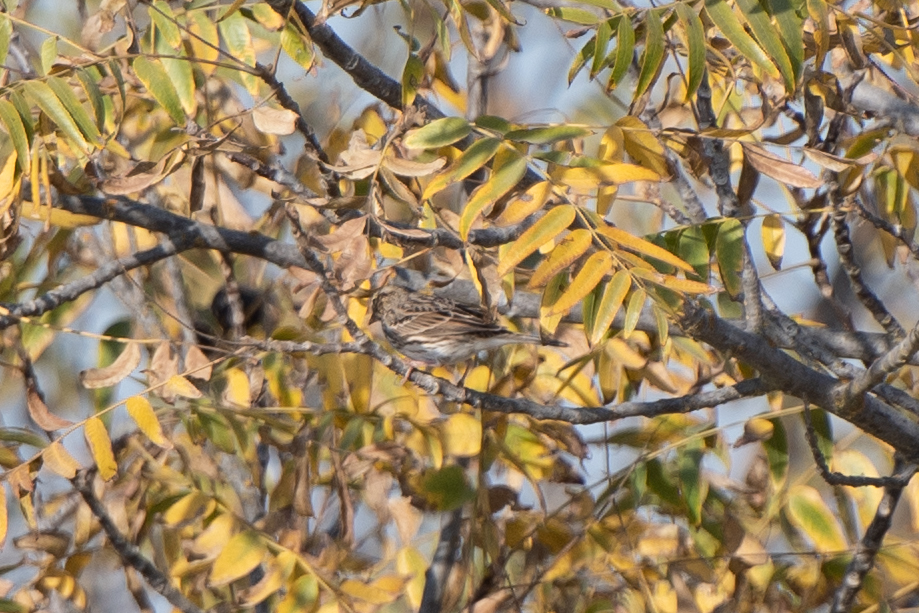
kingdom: Animalia
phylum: Chordata
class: Aves
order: Passeriformes
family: Passerellidae
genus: Passerculus
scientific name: Passerculus sandwichensis
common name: Savannah sparrow
